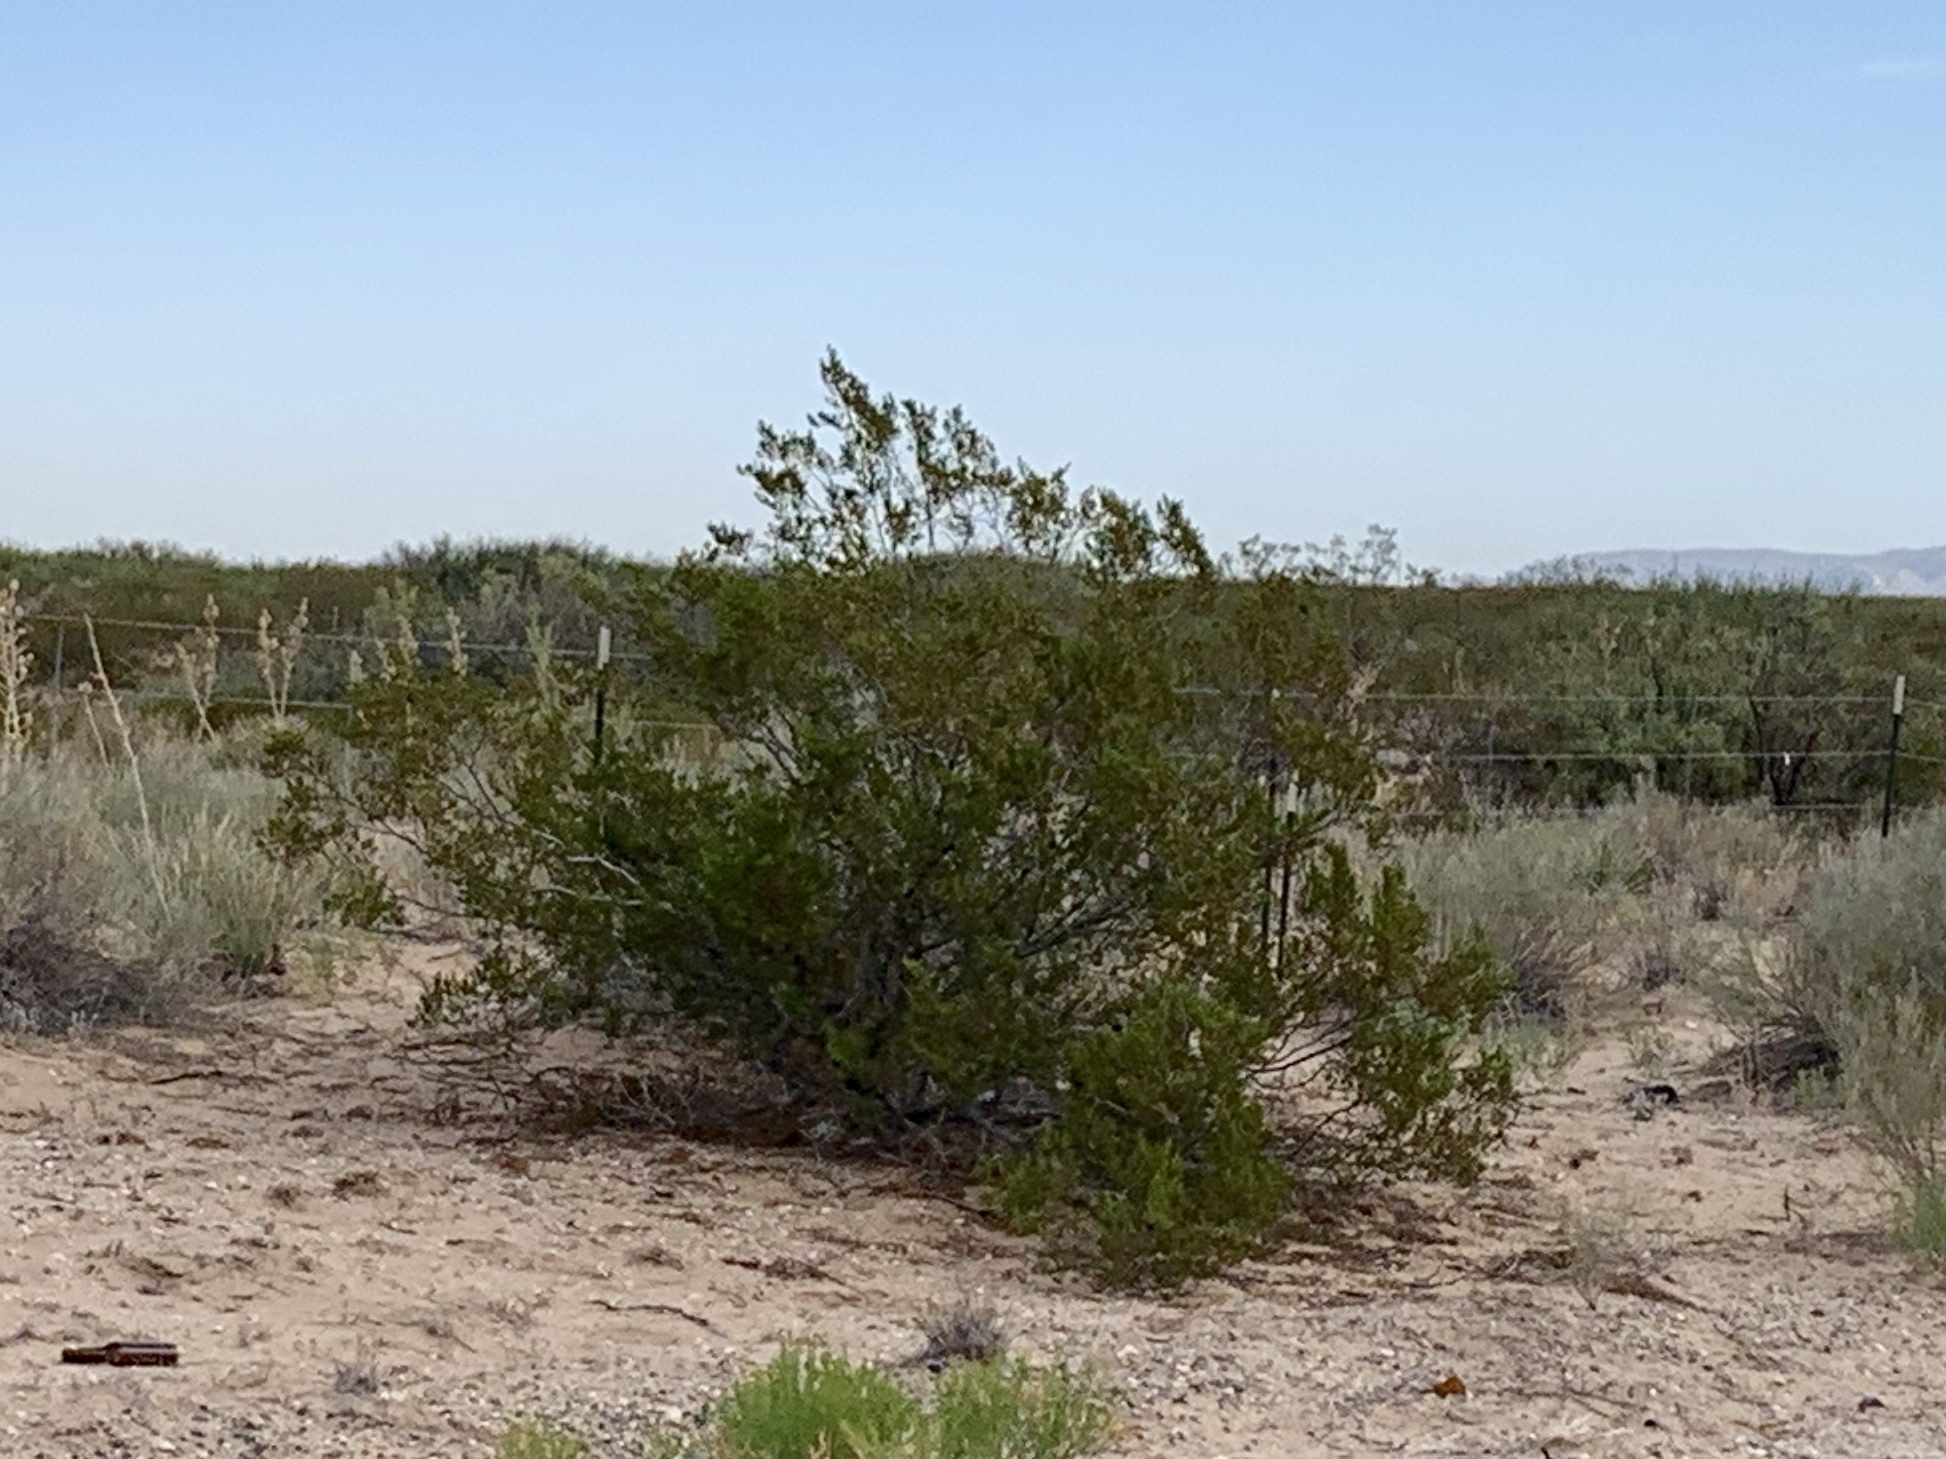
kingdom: Plantae
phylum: Tracheophyta
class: Magnoliopsida
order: Zygophyllales
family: Zygophyllaceae
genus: Larrea
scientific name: Larrea tridentata
